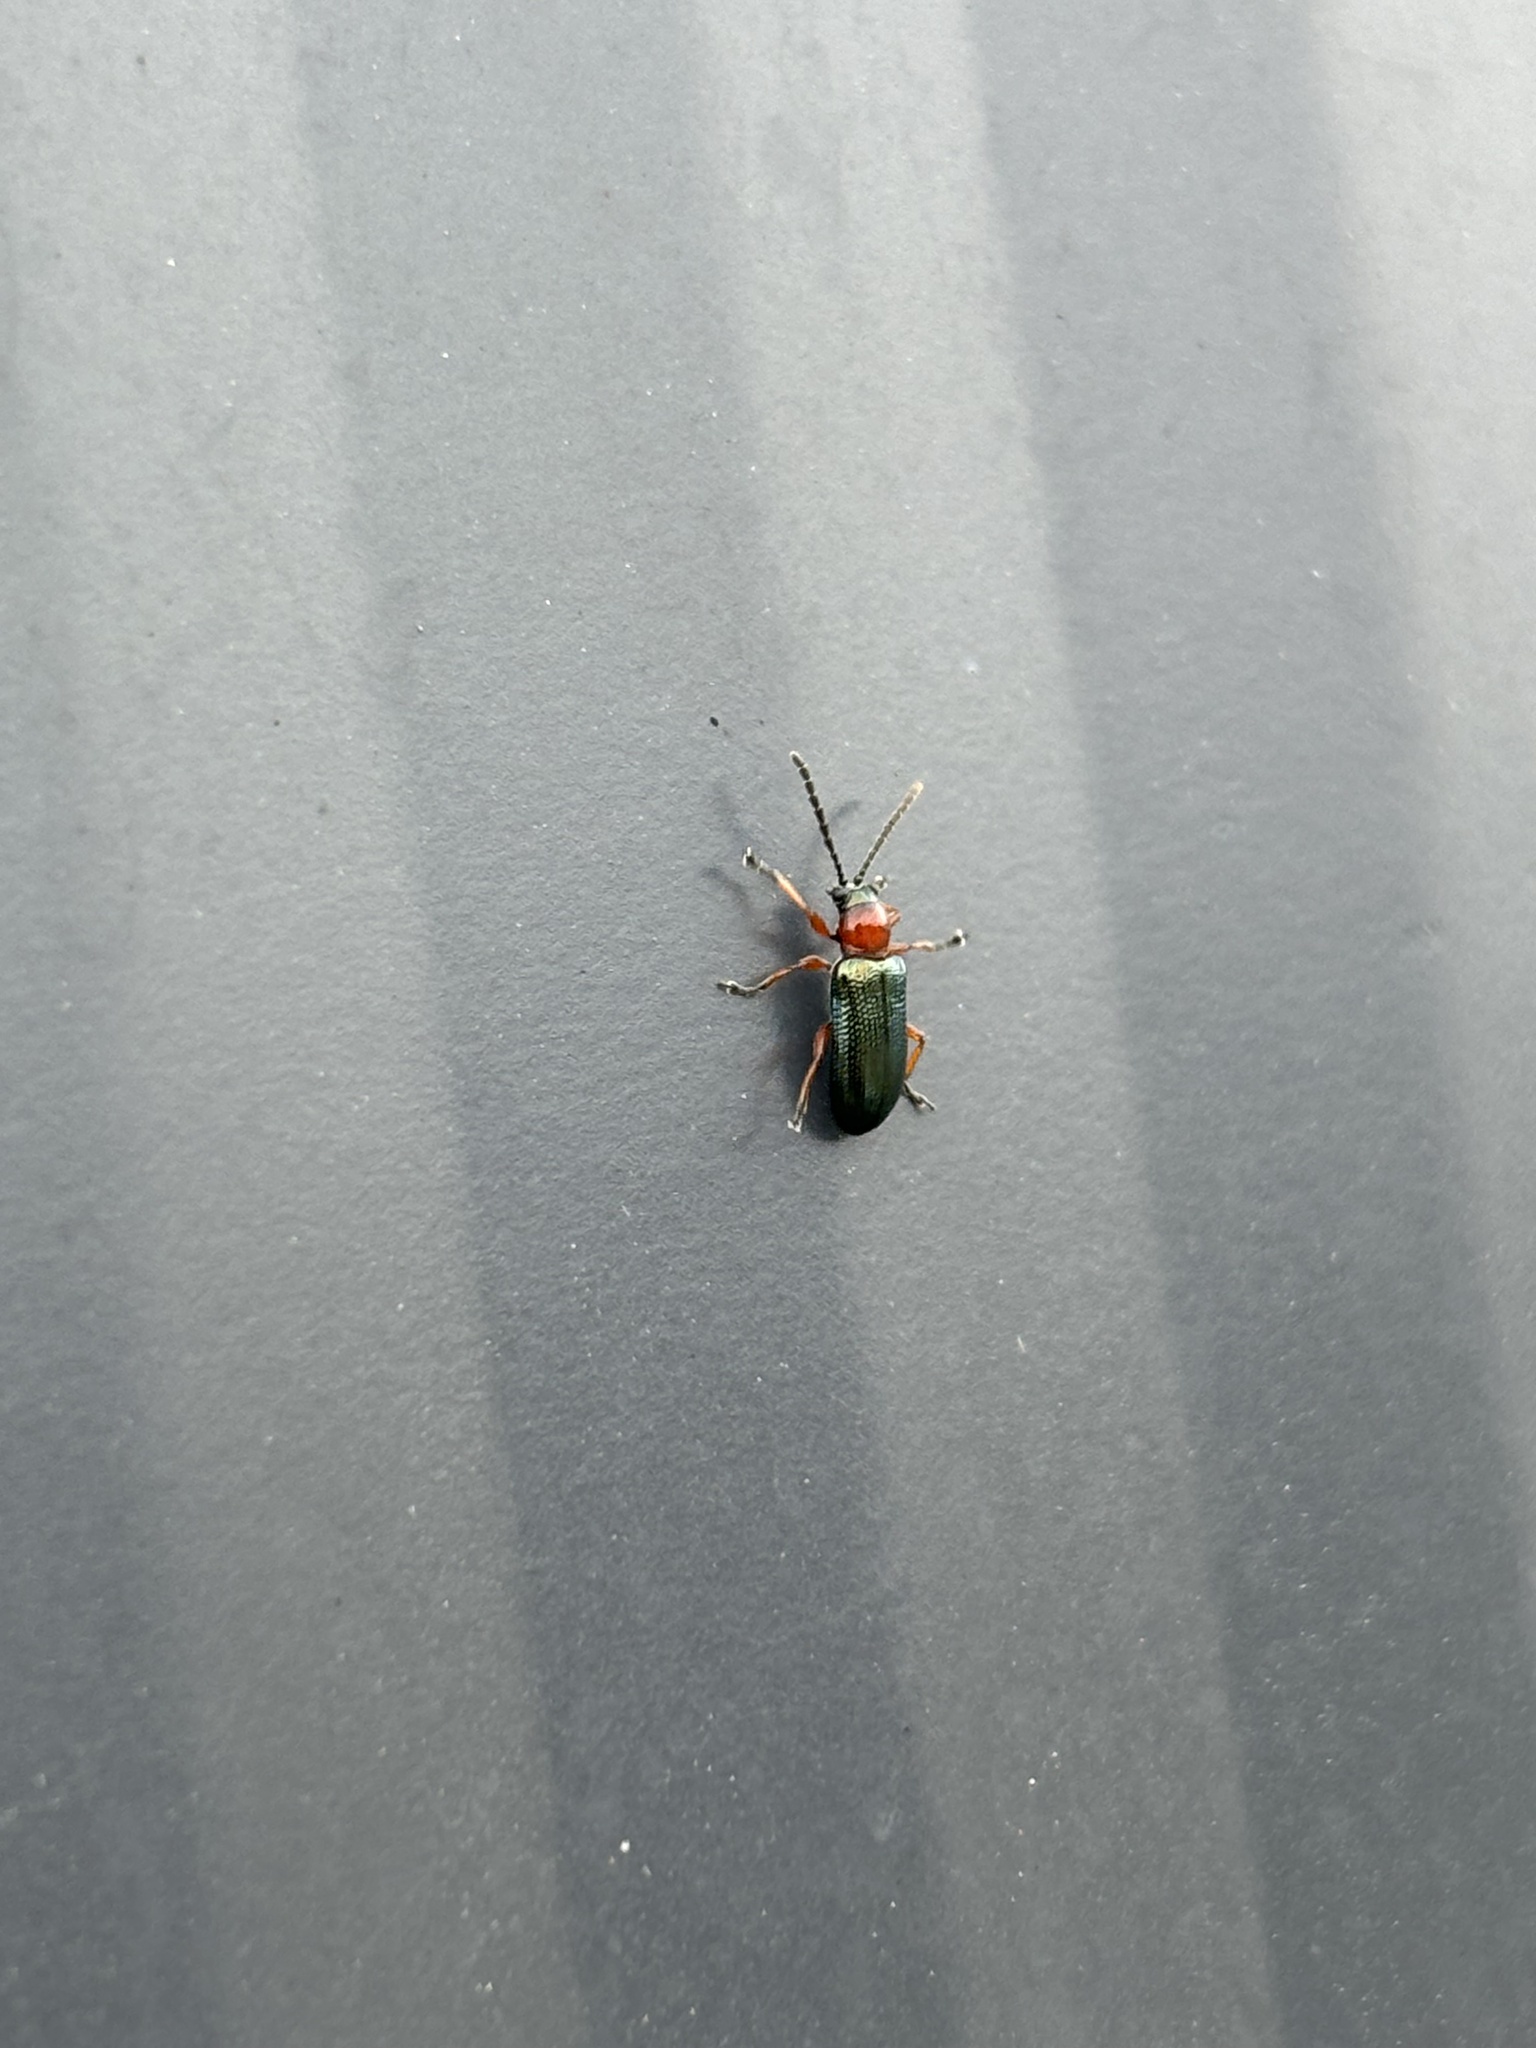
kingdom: Animalia
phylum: Arthropoda
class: Insecta
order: Coleoptera
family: Chrysomelidae
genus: Oulema
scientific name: Oulema
